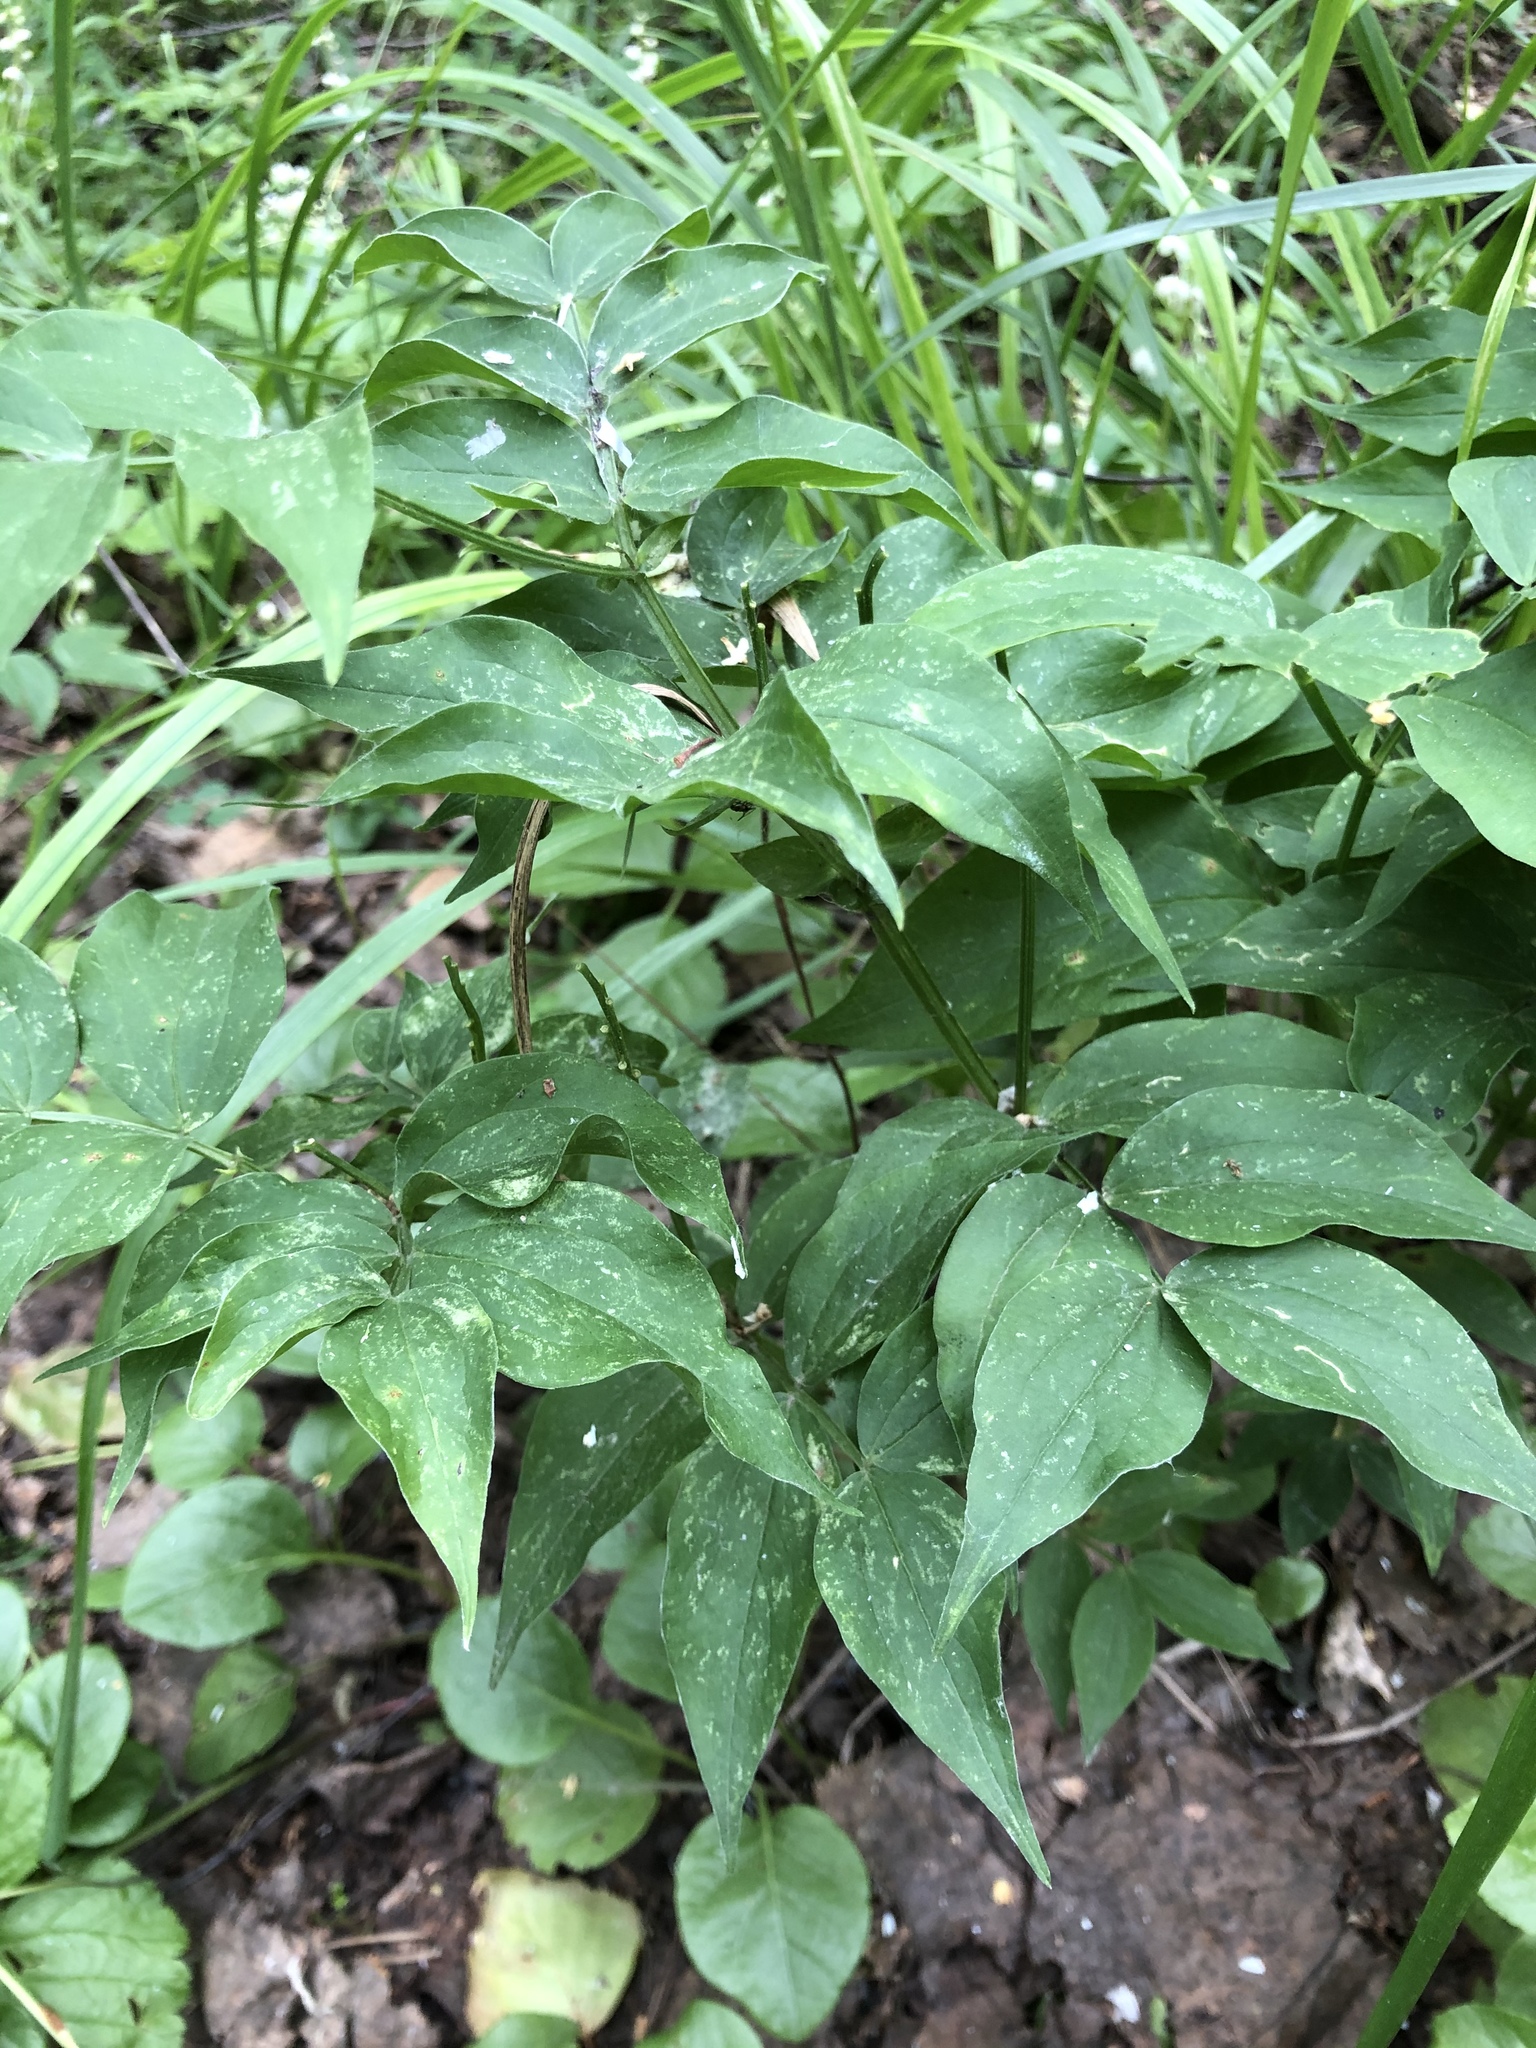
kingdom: Plantae
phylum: Tracheophyta
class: Magnoliopsida
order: Fabales
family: Fabaceae
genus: Lathyrus
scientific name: Lathyrus vernus
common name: Spring pea
